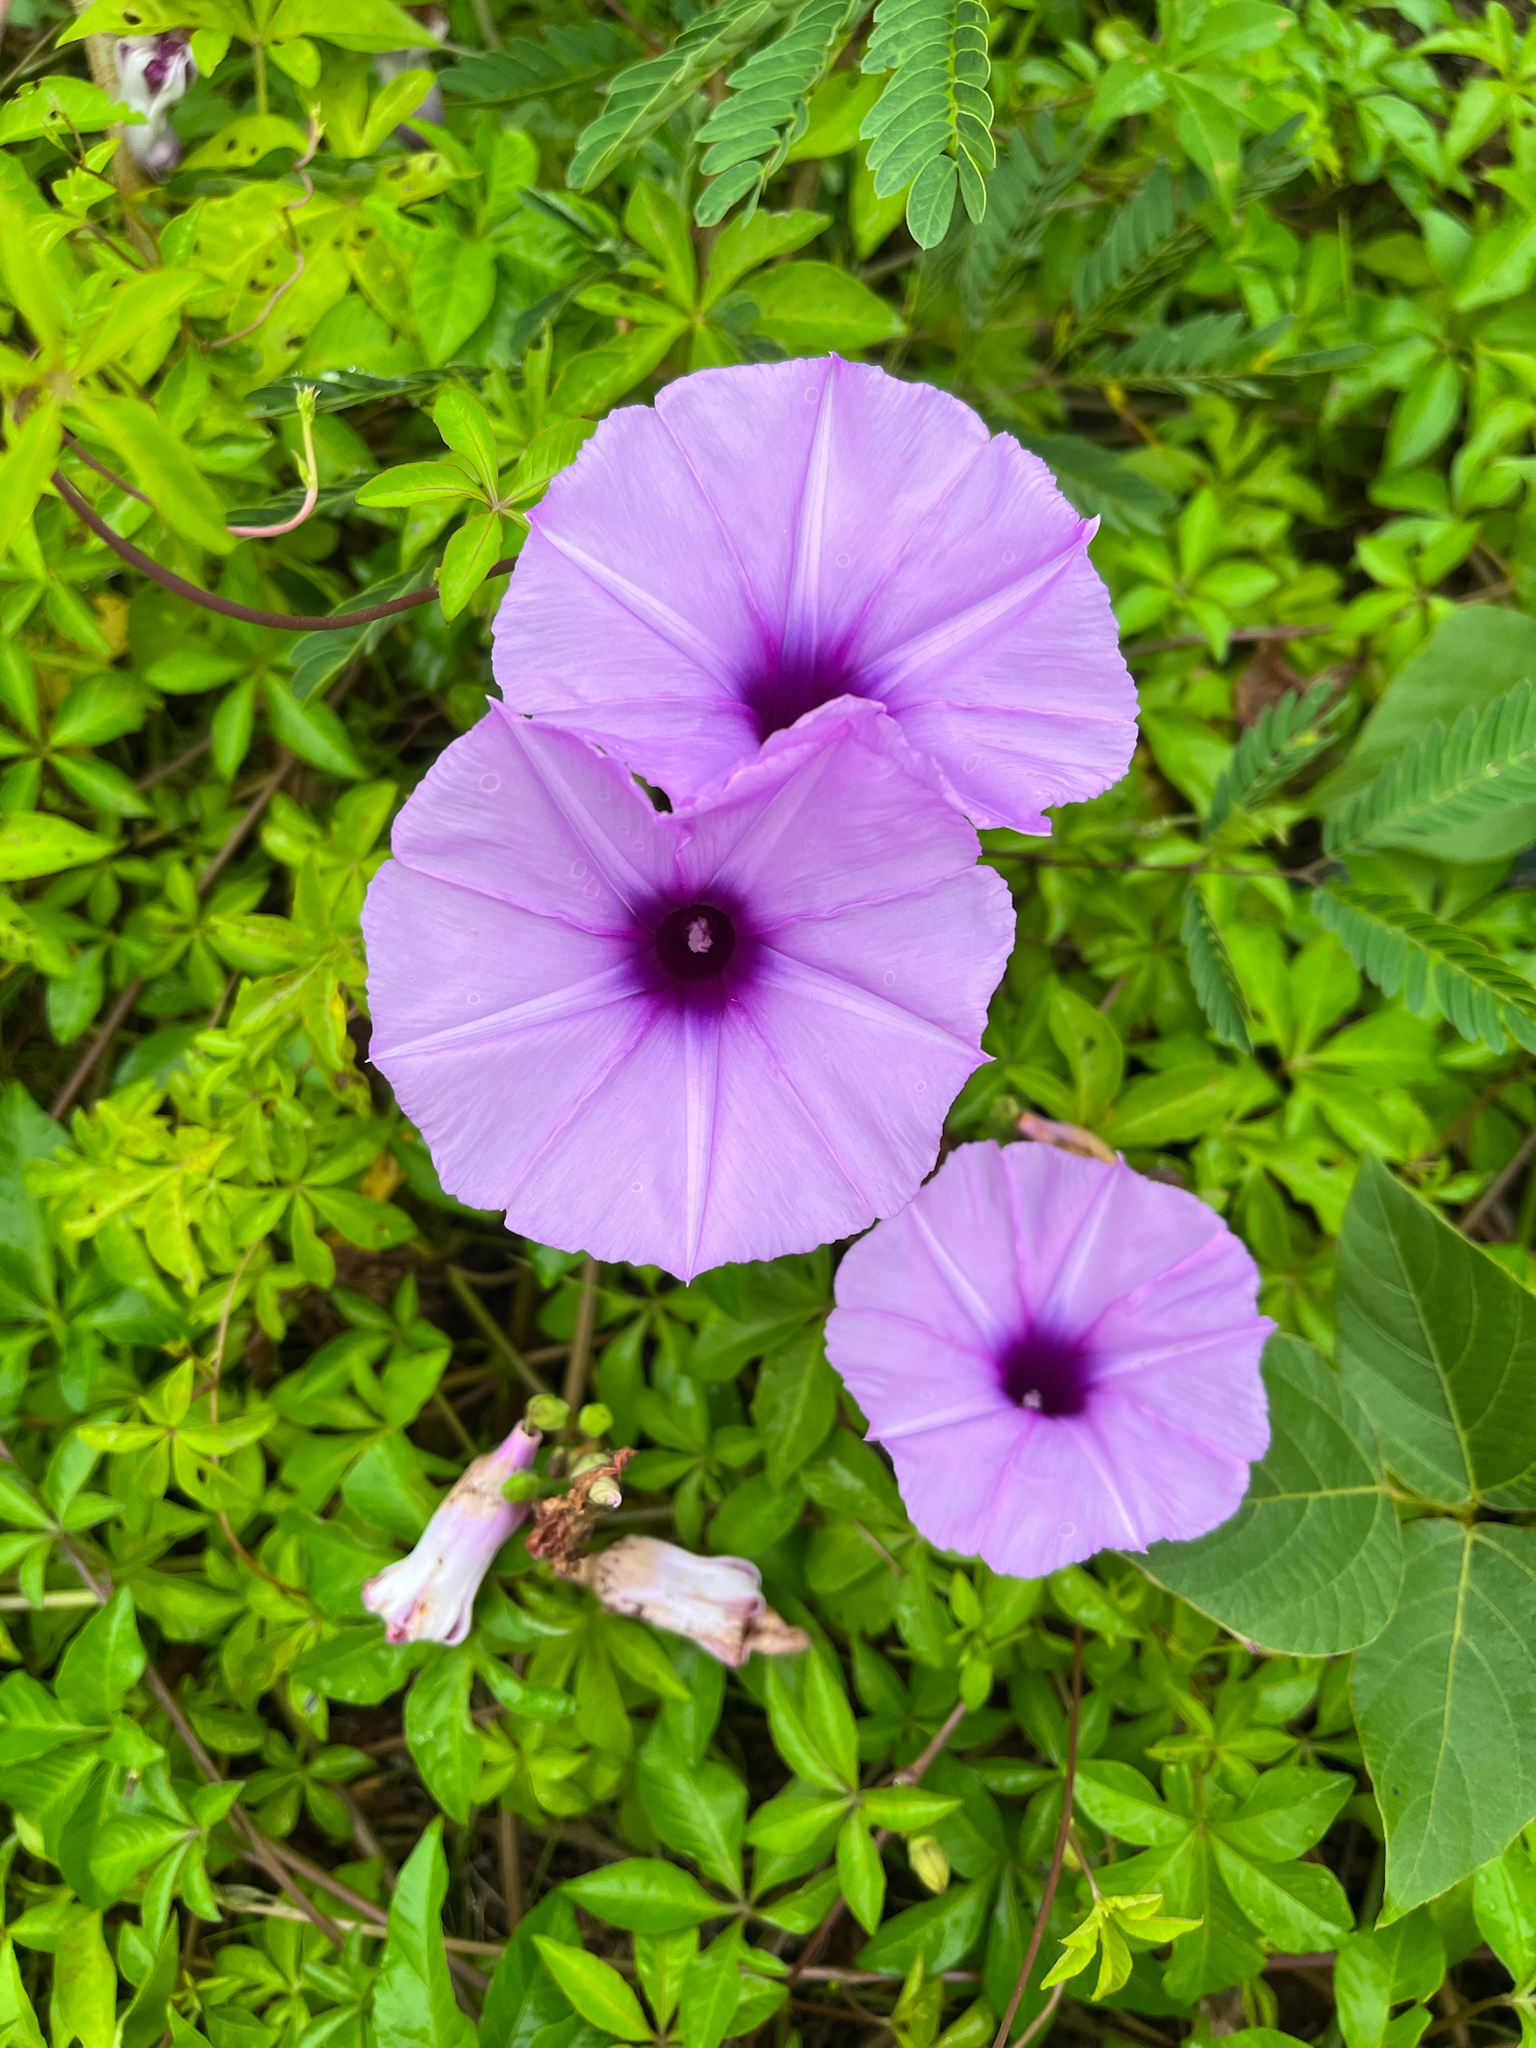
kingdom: Plantae
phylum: Tracheophyta
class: Magnoliopsida
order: Solanales
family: Convolvulaceae
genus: Ipomoea
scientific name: Ipomoea cairica
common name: Mile a minute vine
